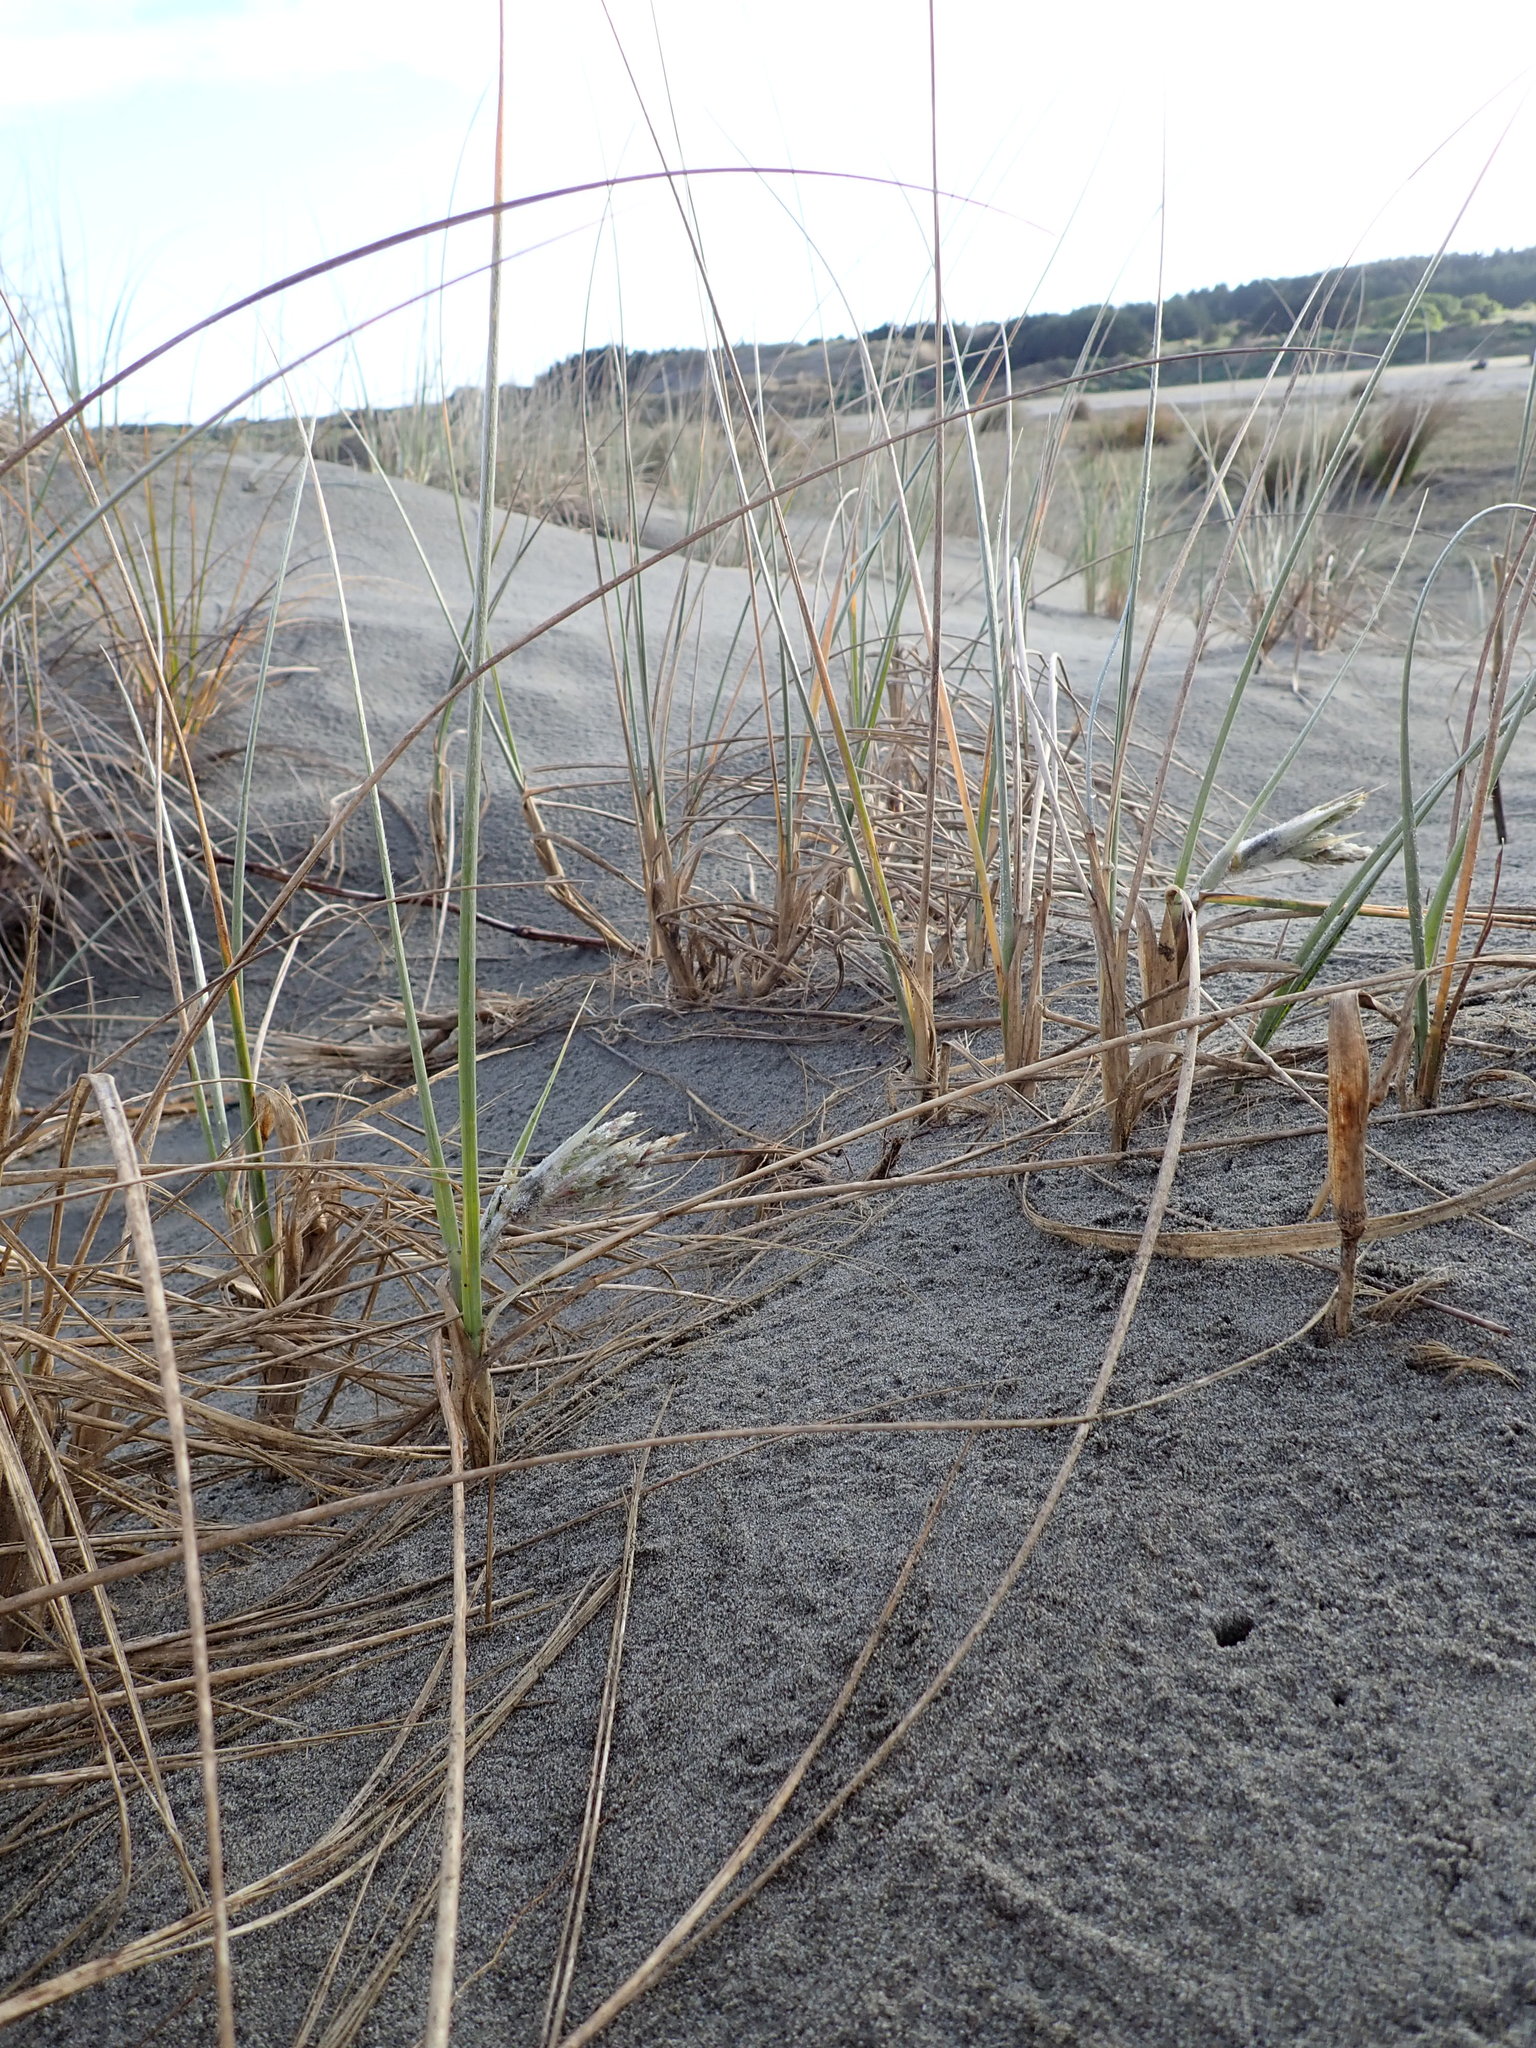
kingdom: Plantae
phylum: Tracheophyta
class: Liliopsida
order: Poales
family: Poaceae
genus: Spinifex
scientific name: Spinifex sericeus
